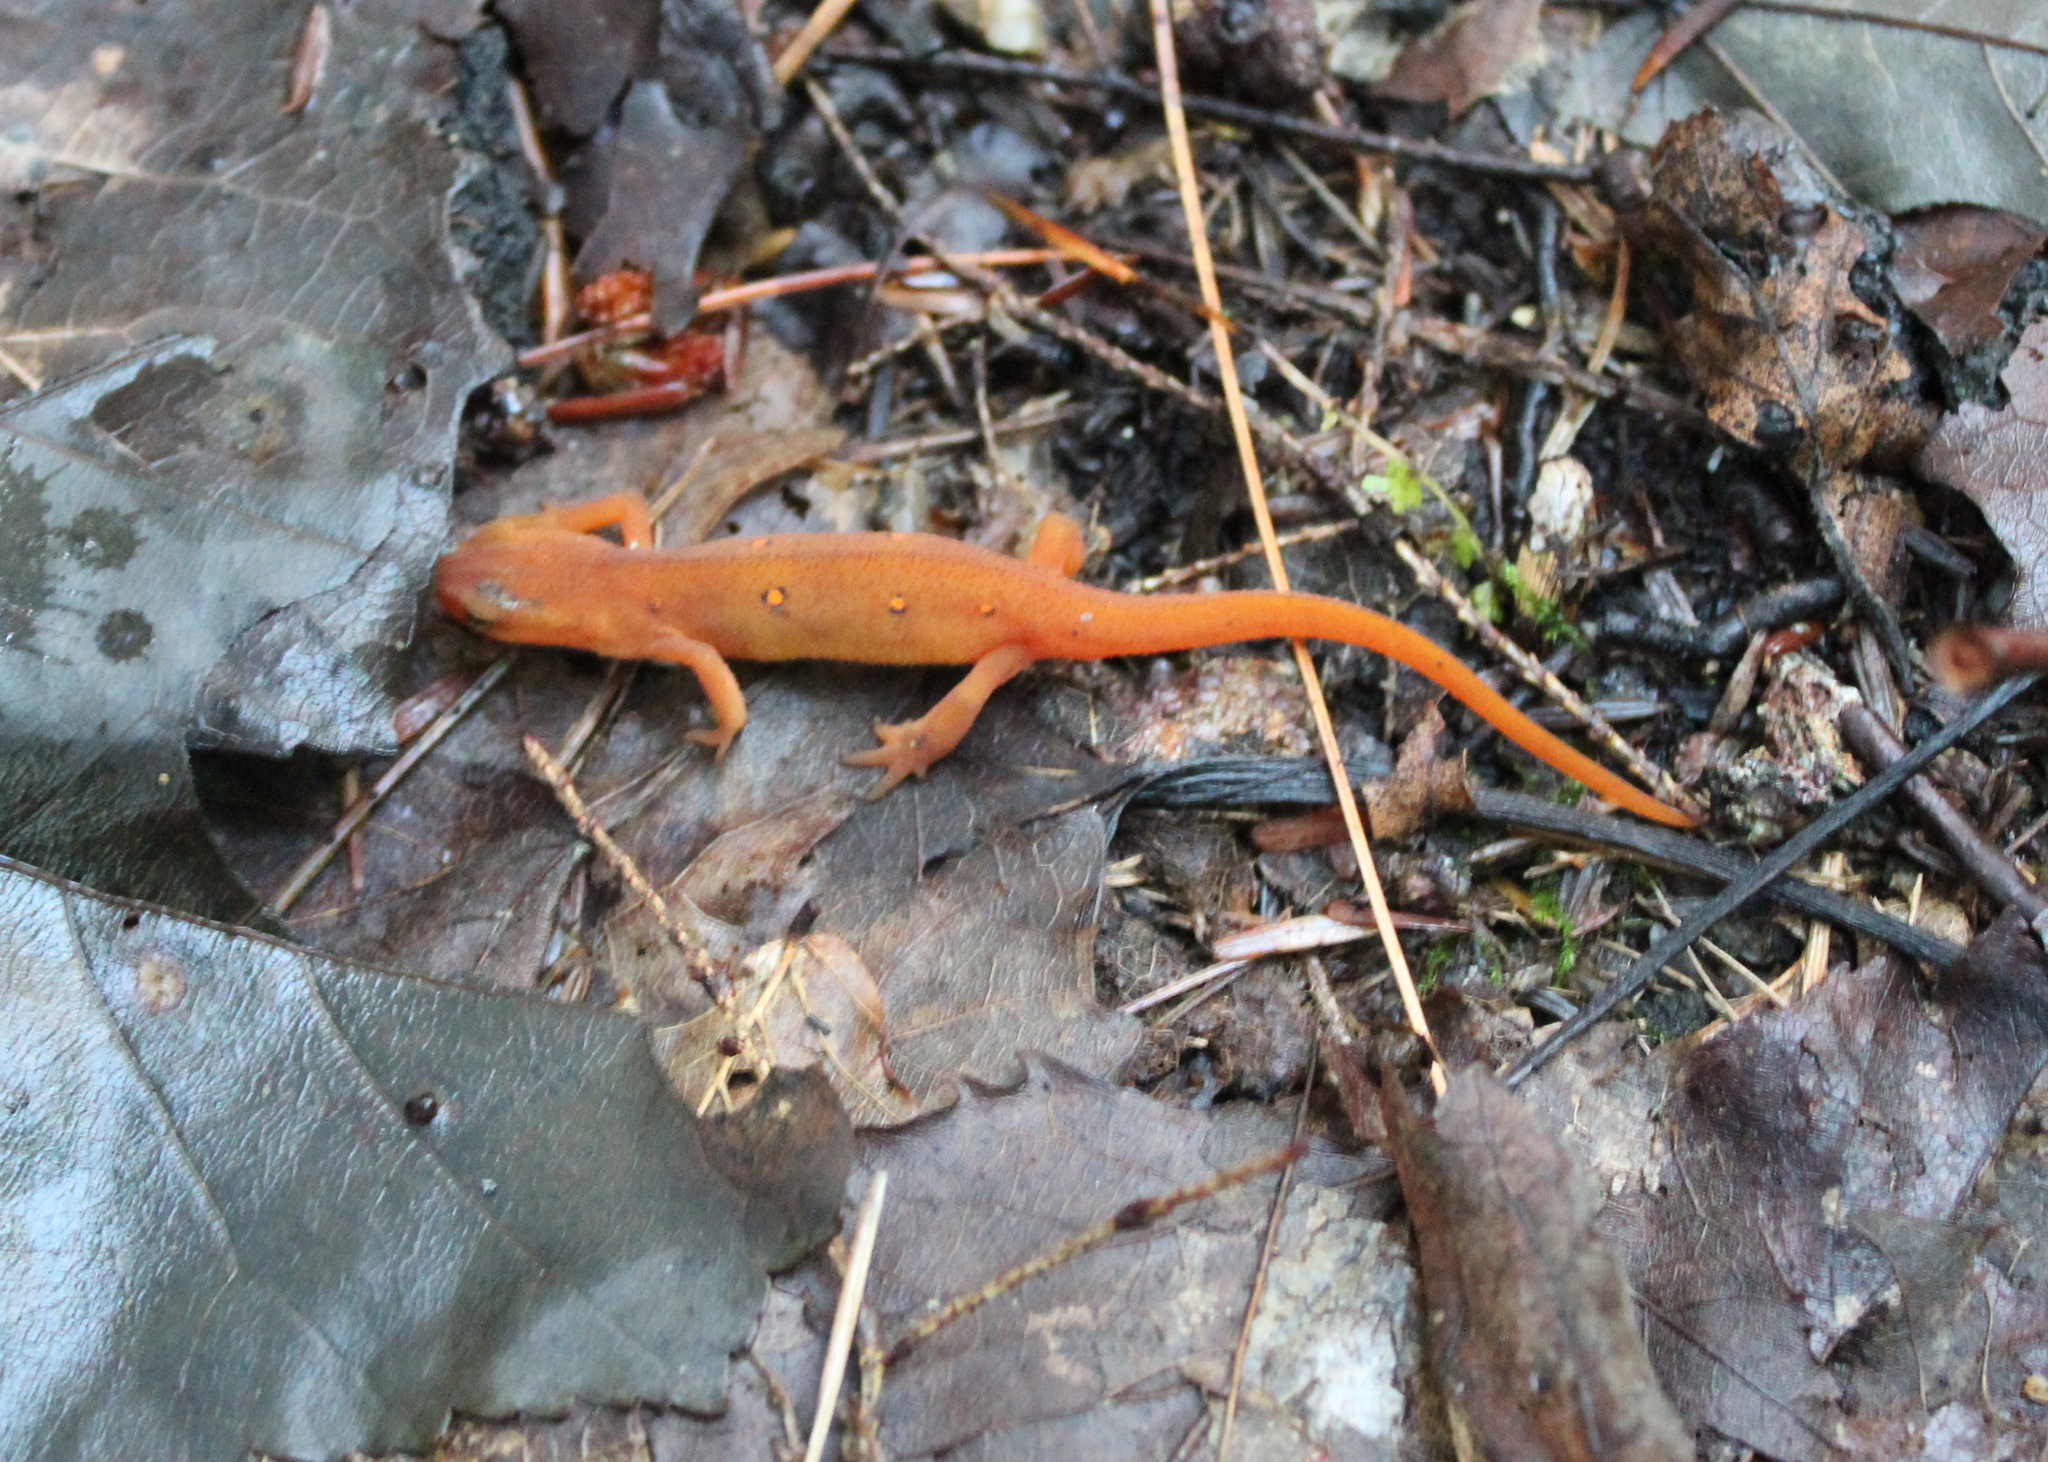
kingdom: Animalia
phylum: Chordata
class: Amphibia
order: Caudata
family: Salamandridae
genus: Notophthalmus
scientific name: Notophthalmus viridescens
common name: Eastern newt
